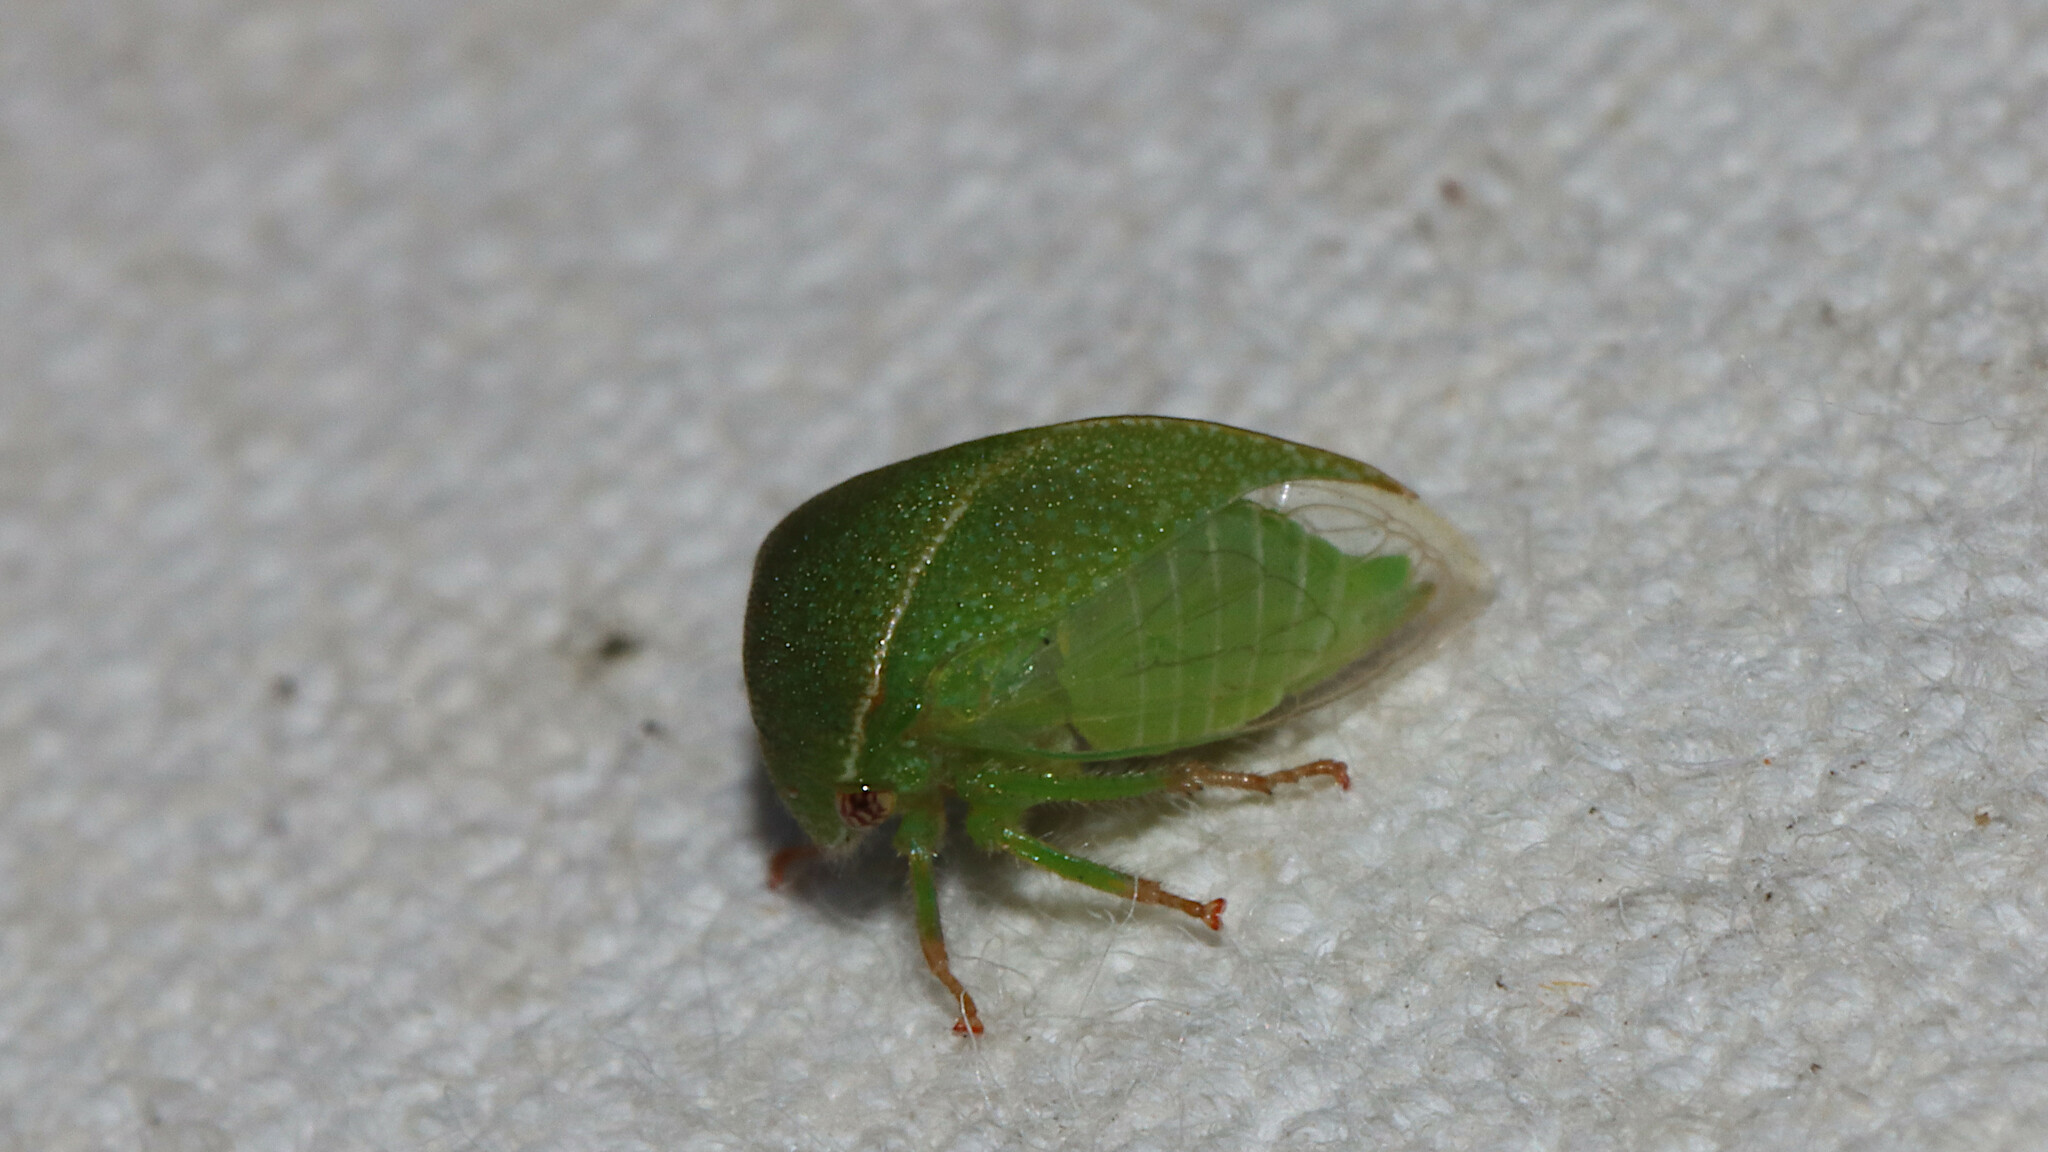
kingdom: Animalia
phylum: Arthropoda
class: Insecta
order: Hemiptera
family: Membracidae
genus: Spissistilus
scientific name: Spissistilus festina
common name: Membracid bug
